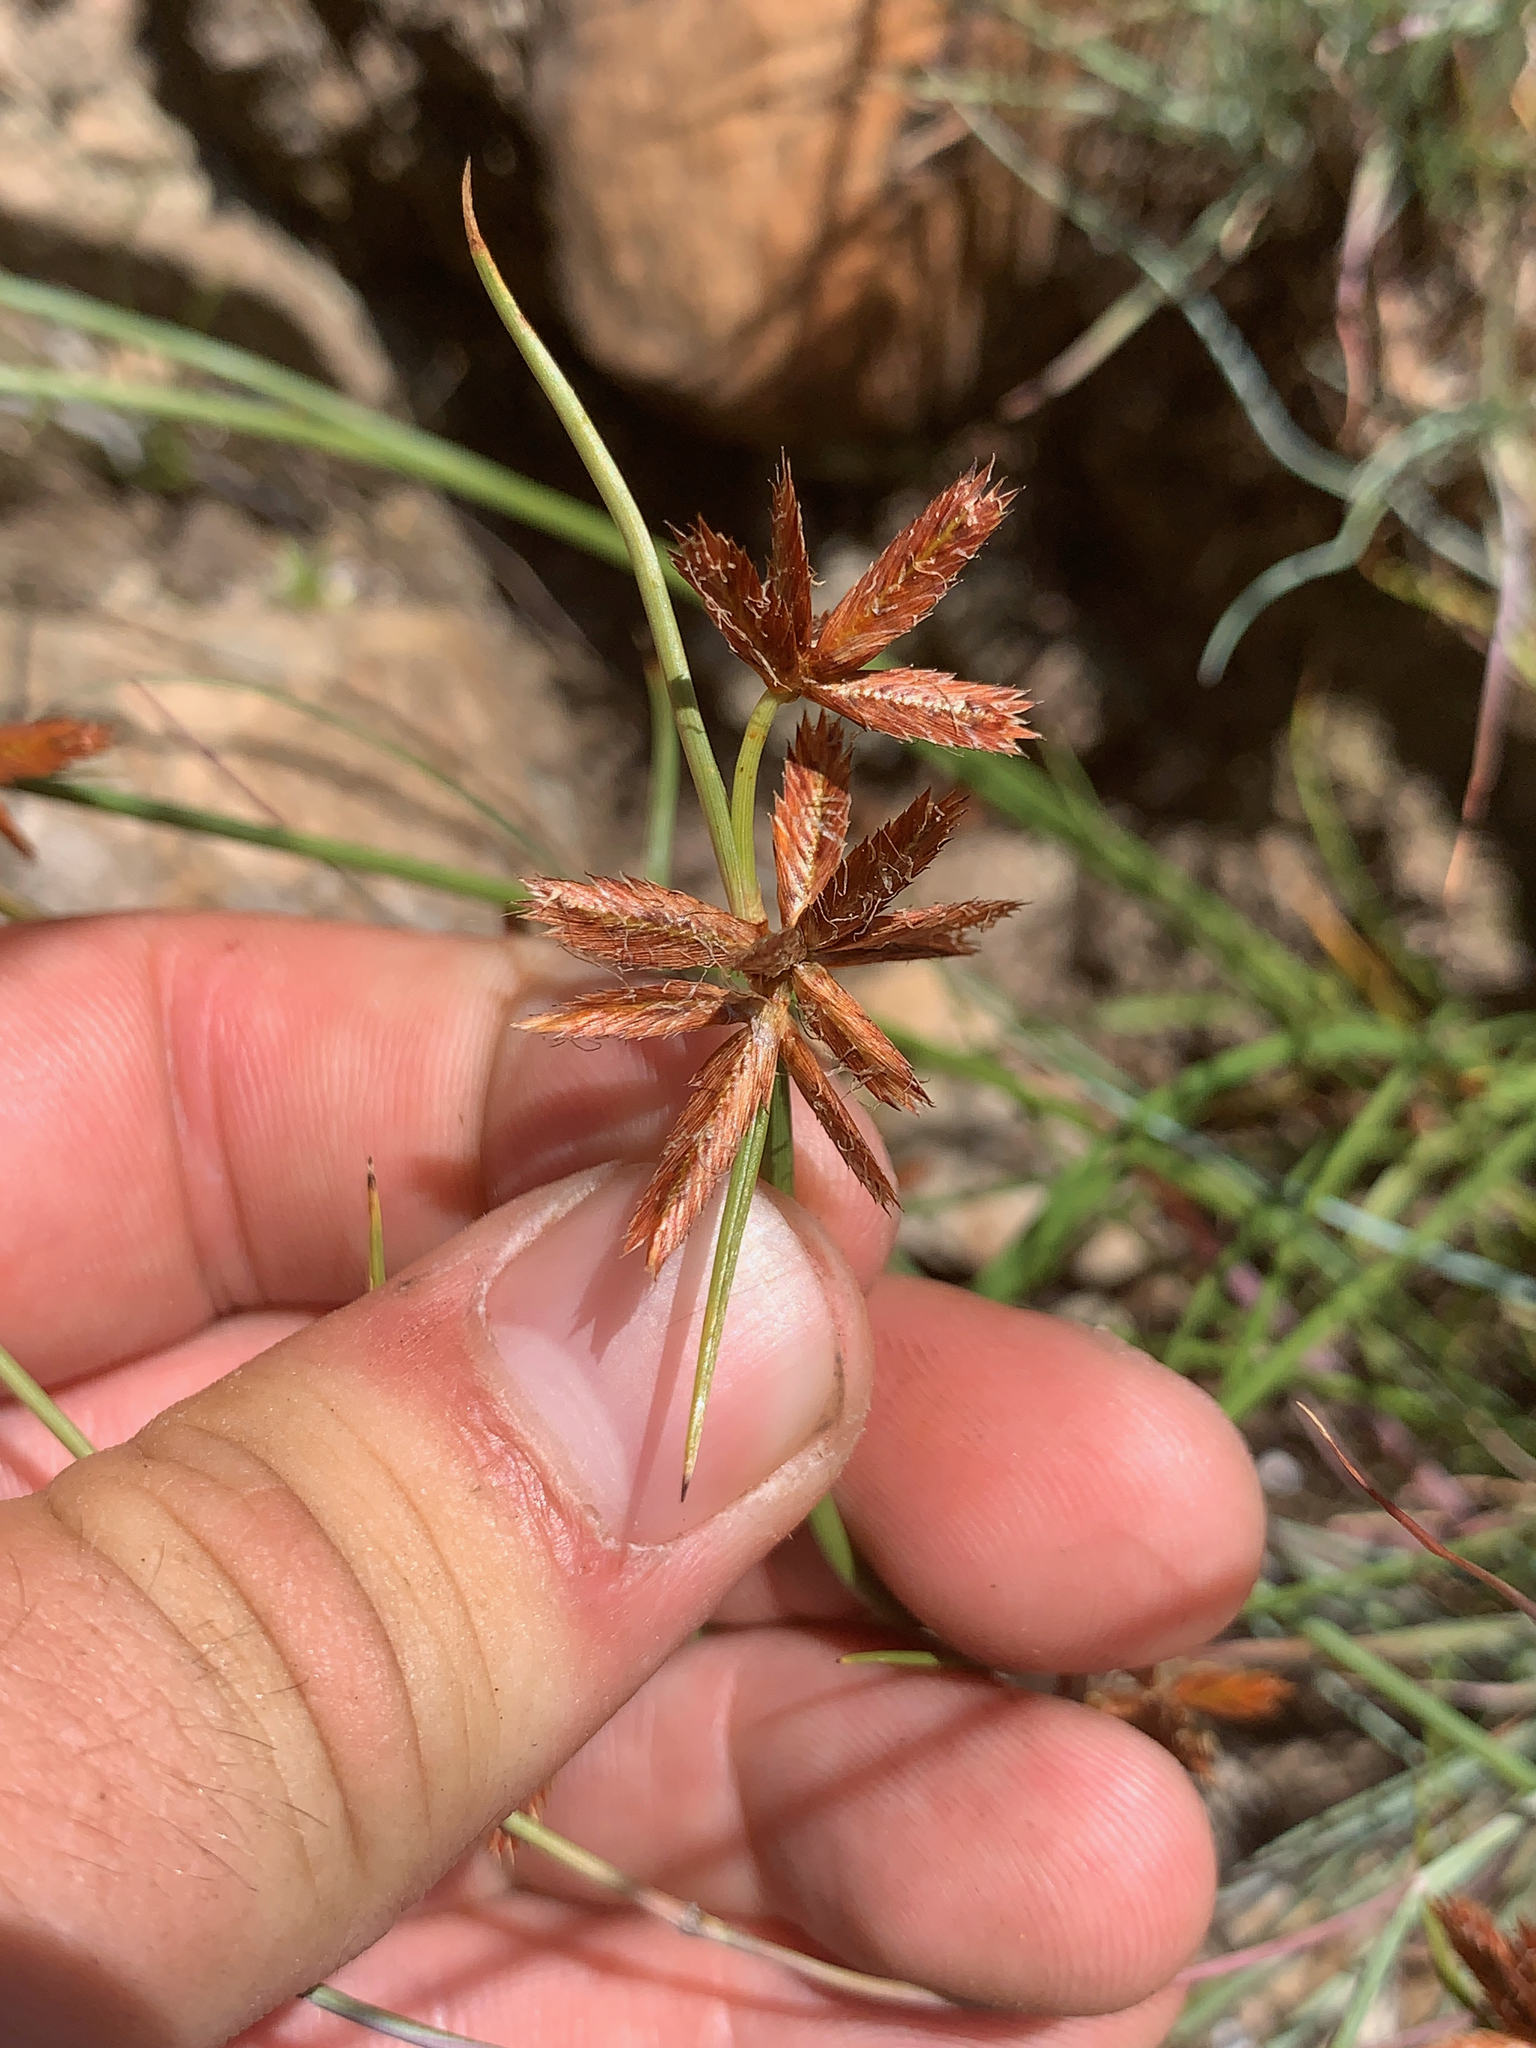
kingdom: Plantae
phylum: Tracheophyta
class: Liliopsida
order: Poales
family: Cyperaceae
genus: Cyperus
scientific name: Cyperus semitrifidus
